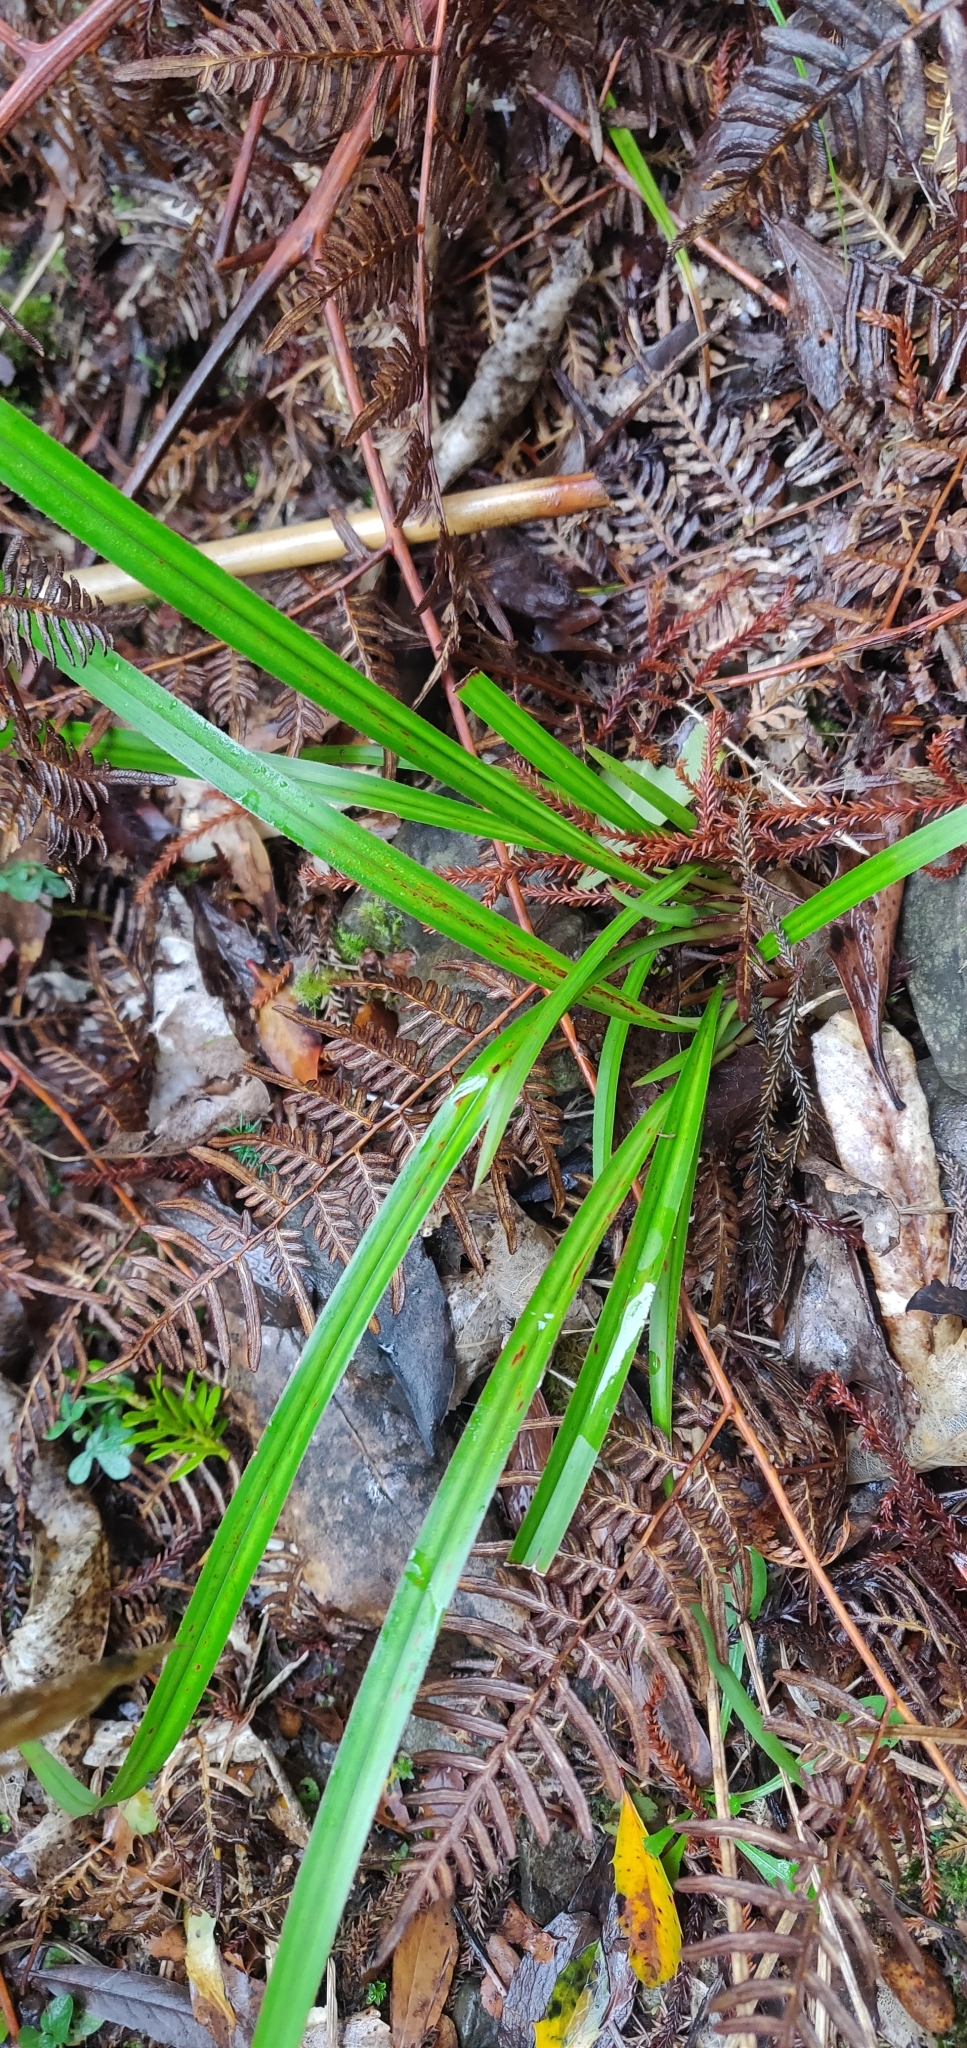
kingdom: Plantae
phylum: Tracheophyta
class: Liliopsida
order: Asparagales
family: Asphodelaceae
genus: Dianella
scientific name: Dianella nigra
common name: New zealand-blueberry
